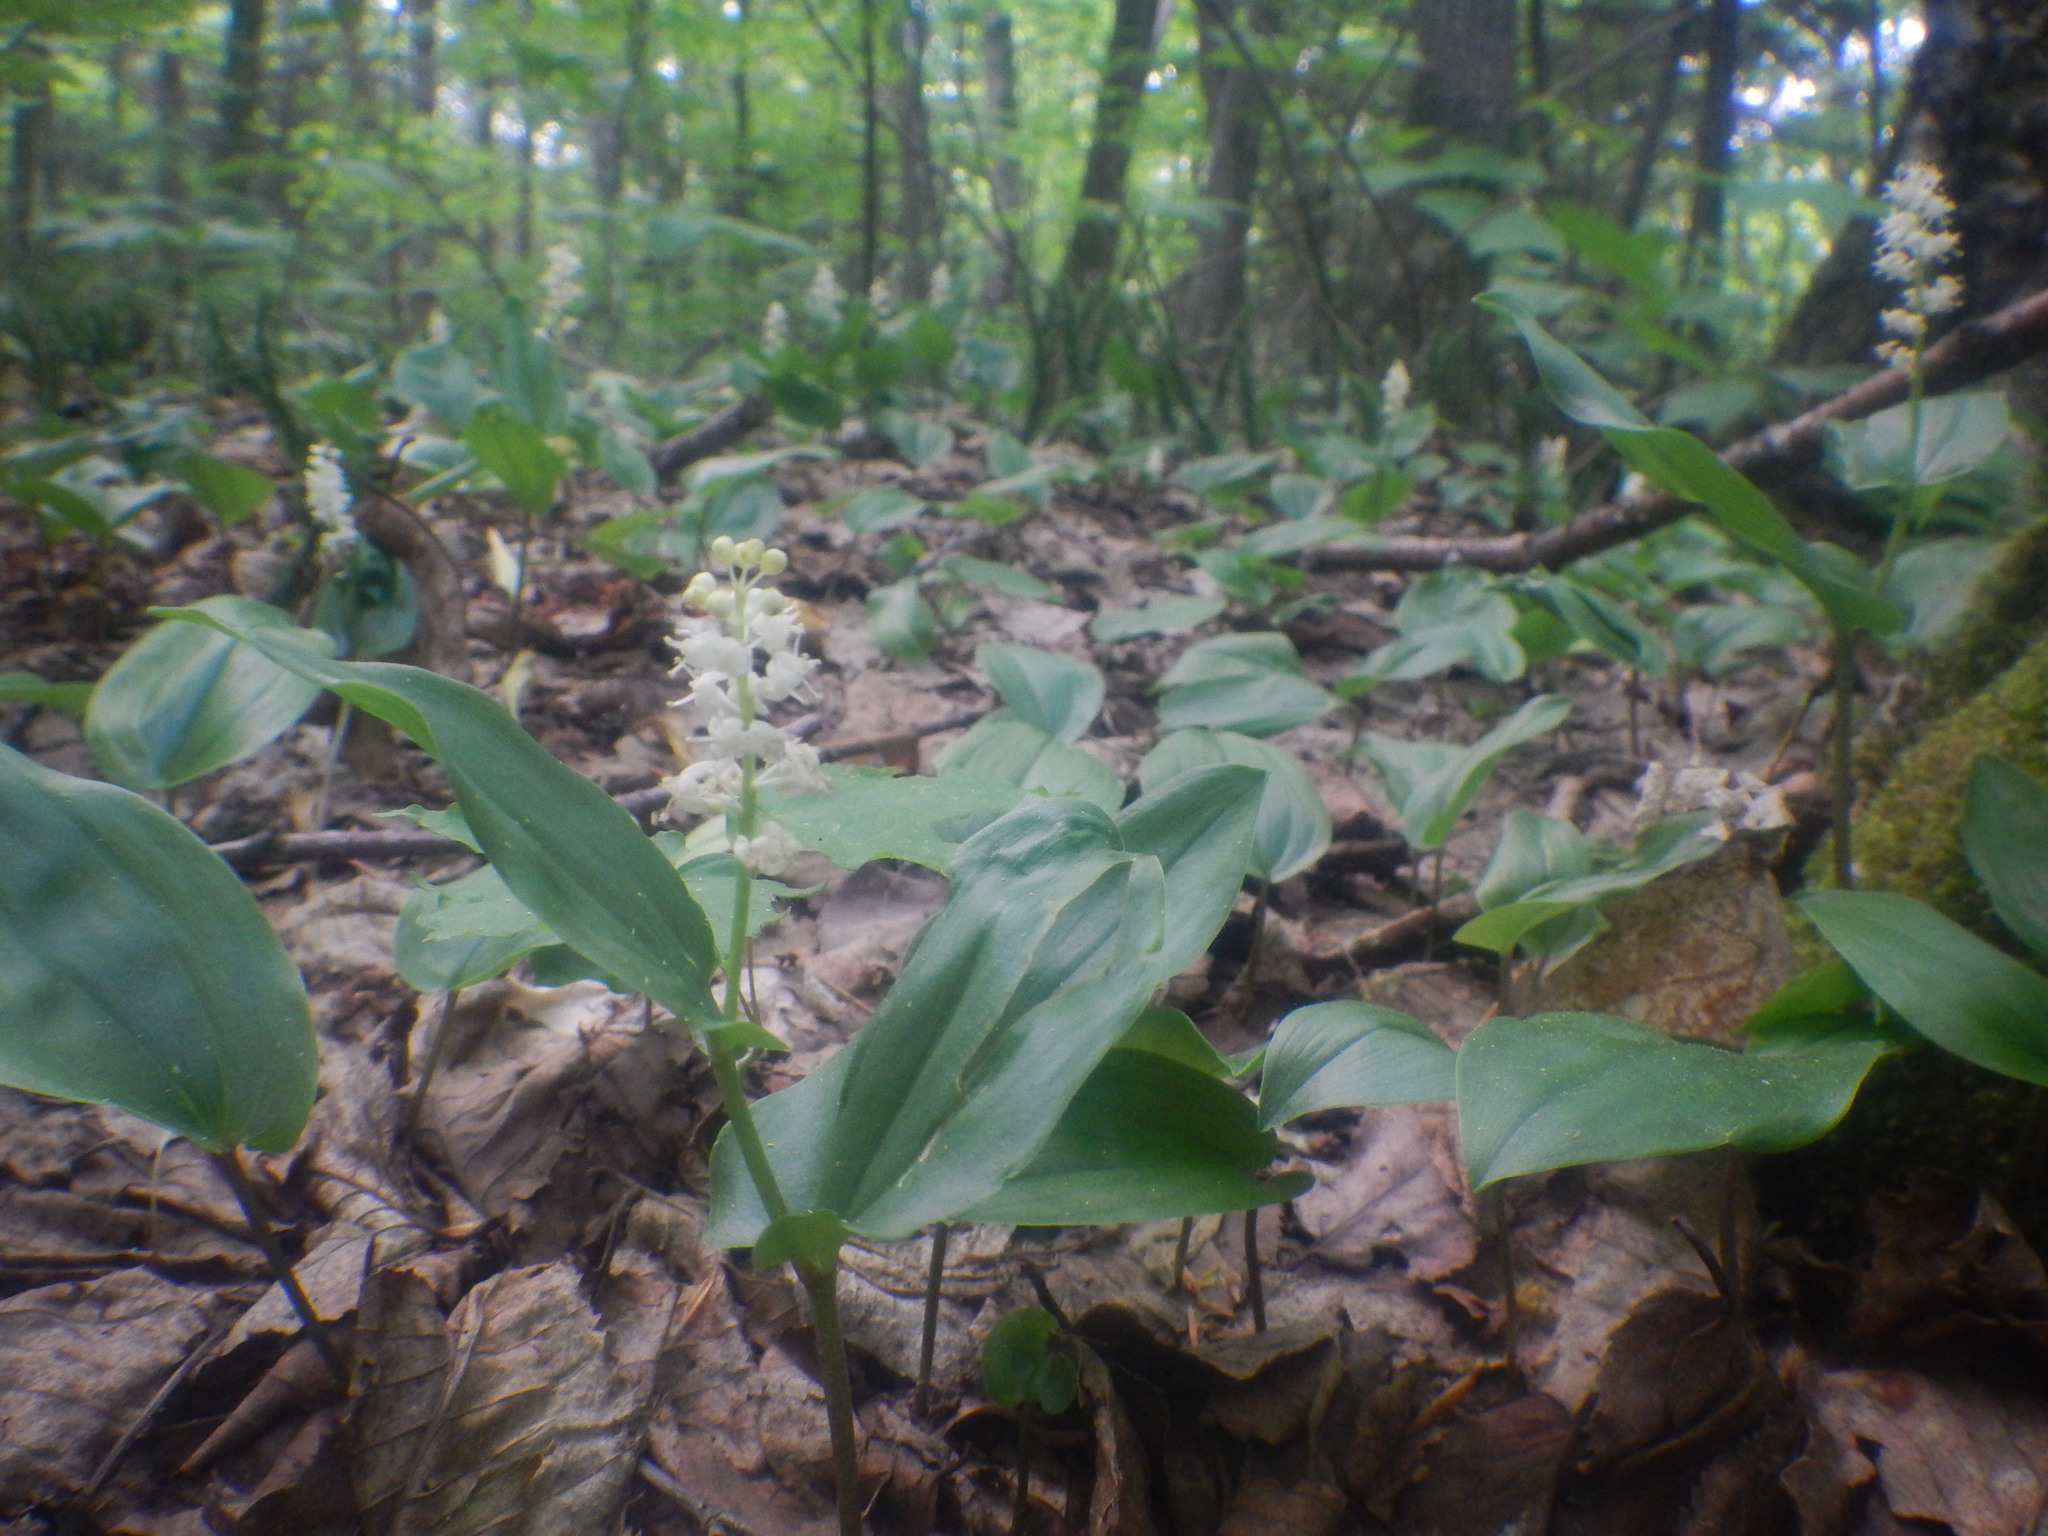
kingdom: Plantae
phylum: Tracheophyta
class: Liliopsida
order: Asparagales
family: Asparagaceae
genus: Maianthemum
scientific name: Maianthemum canadense
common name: False lily-of-the-valley
